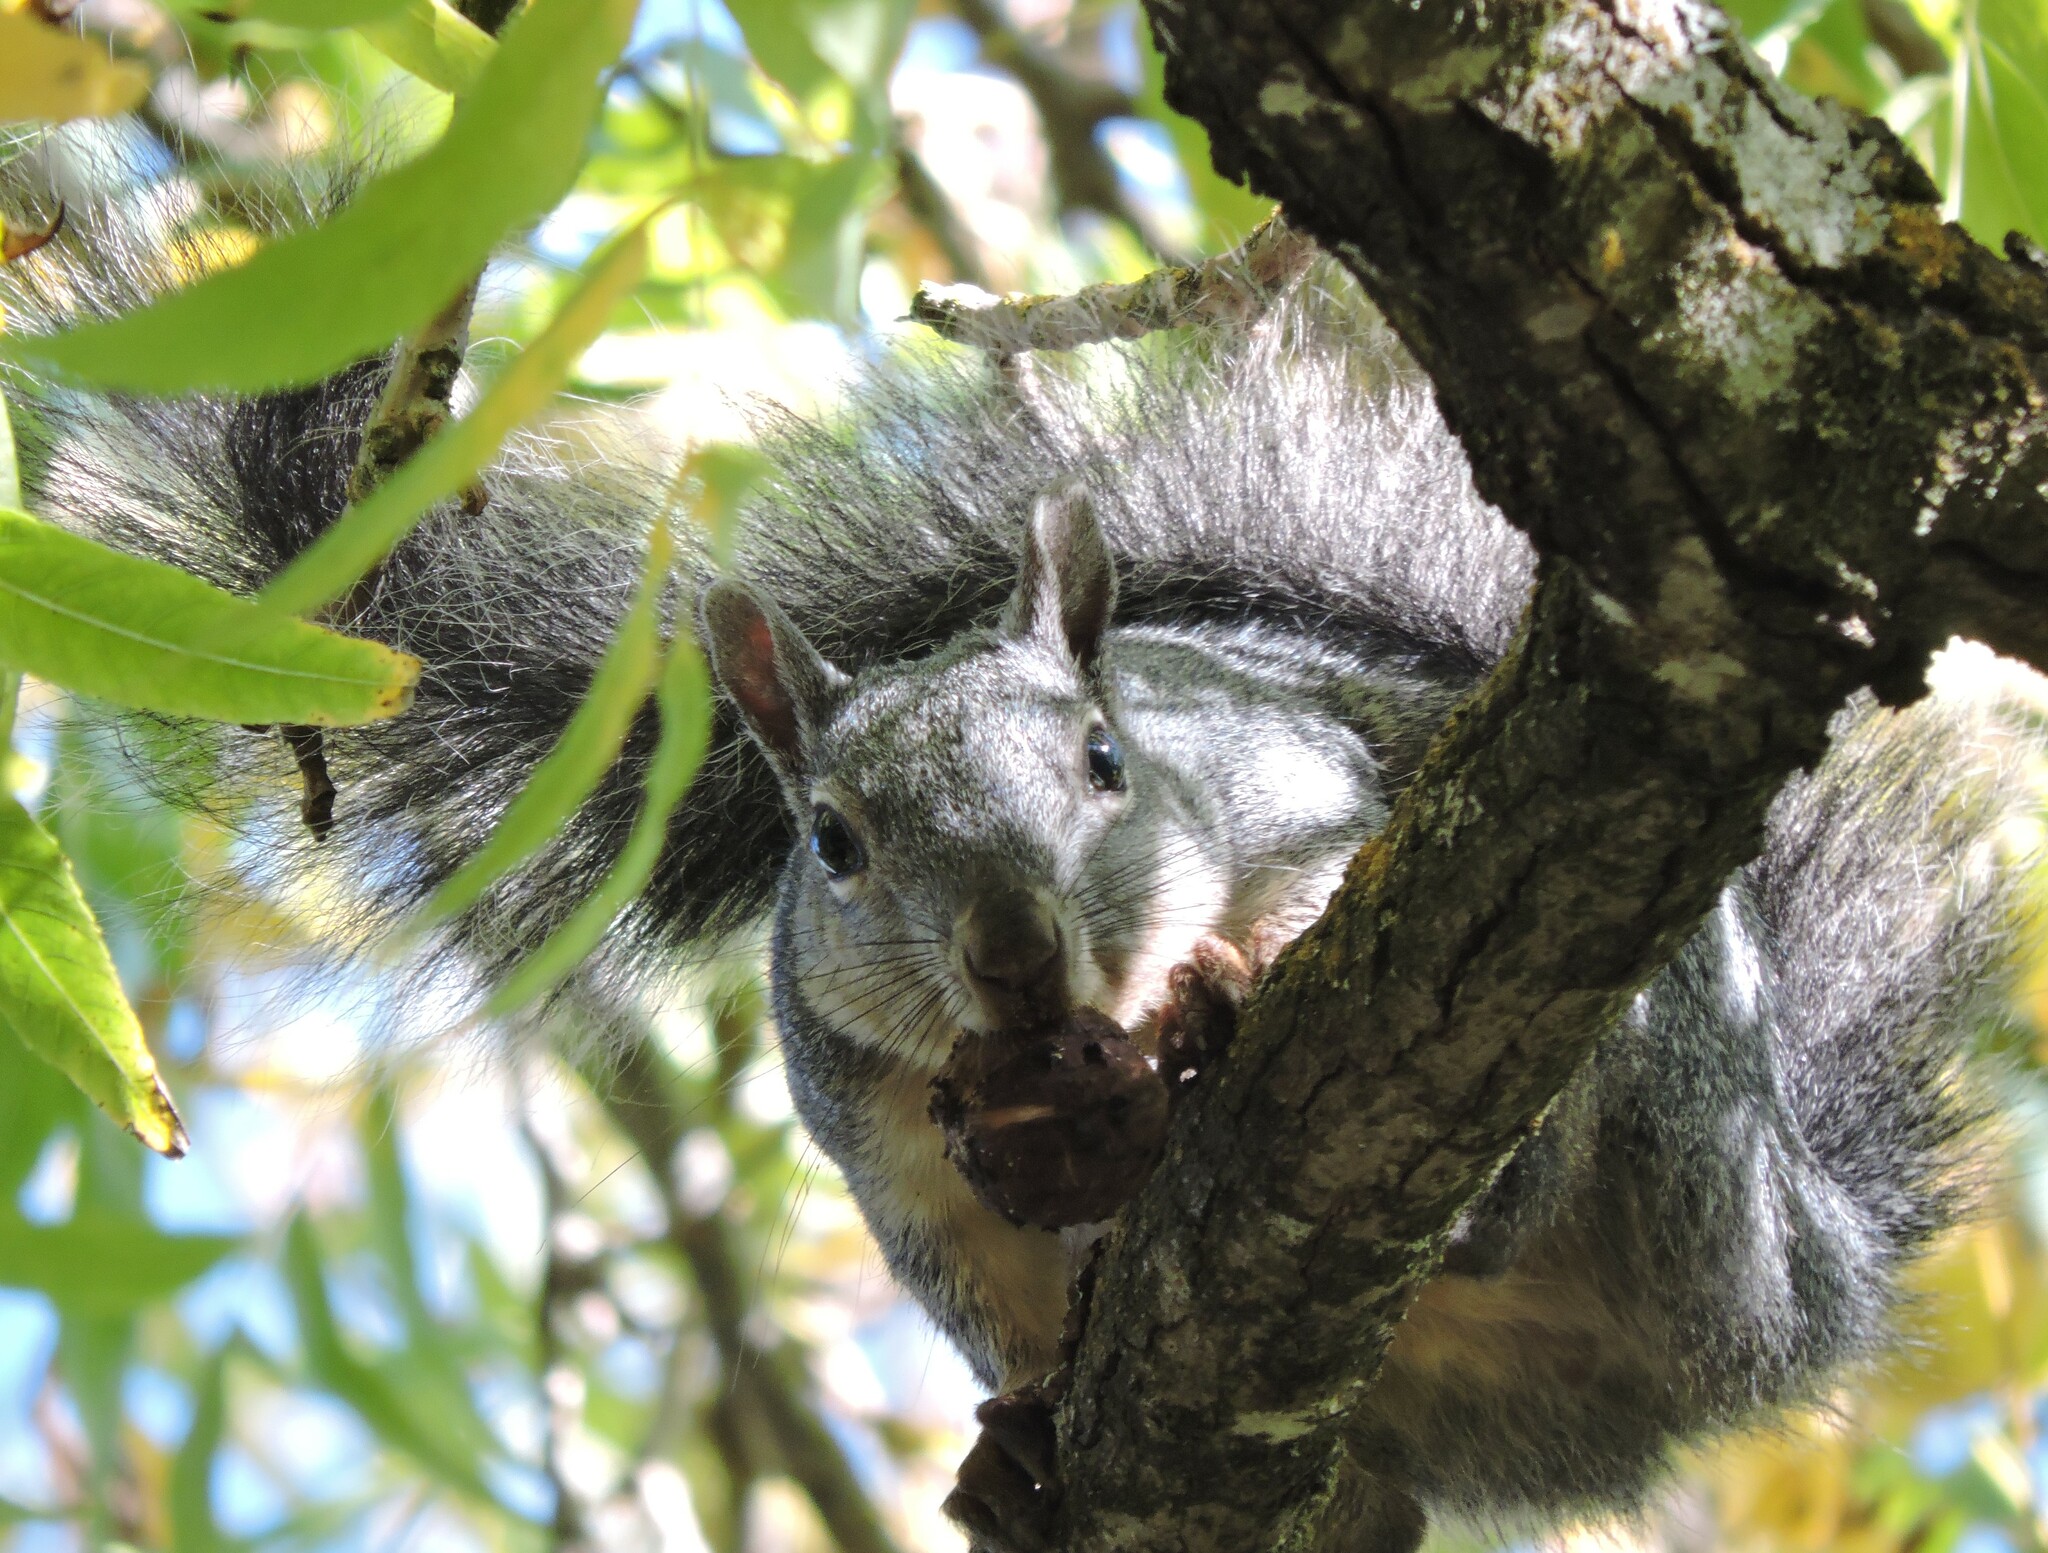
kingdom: Animalia
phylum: Chordata
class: Mammalia
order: Rodentia
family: Sciuridae
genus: Sciurus
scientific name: Sciurus griseus
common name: Western gray squirrel
